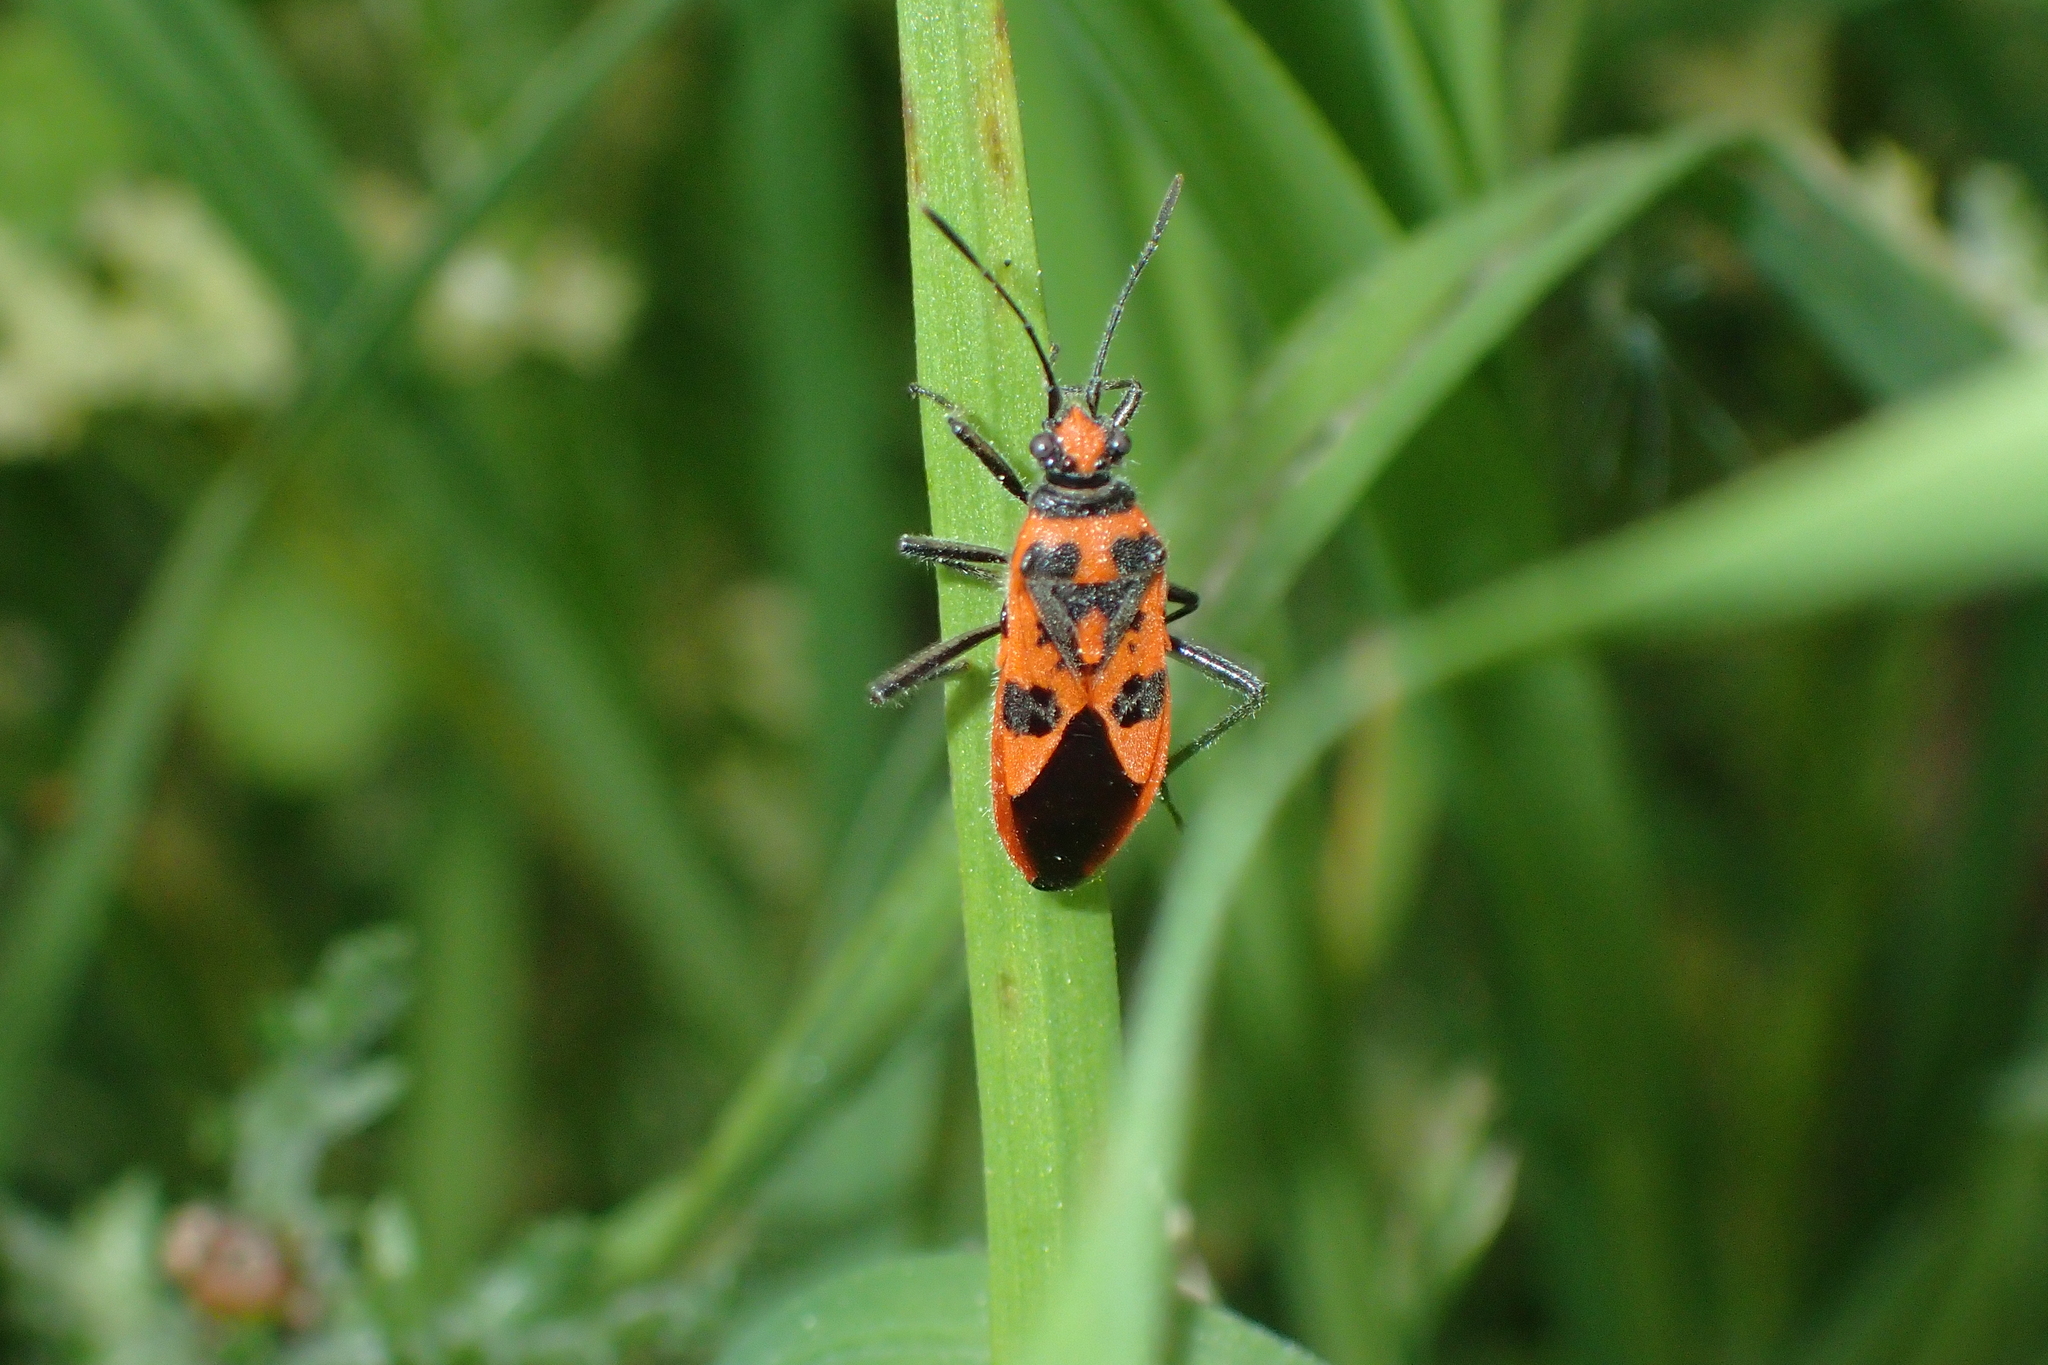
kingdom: Animalia
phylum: Arthropoda
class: Insecta
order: Hemiptera
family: Rhopalidae
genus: Corizus
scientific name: Corizus hyoscyami
